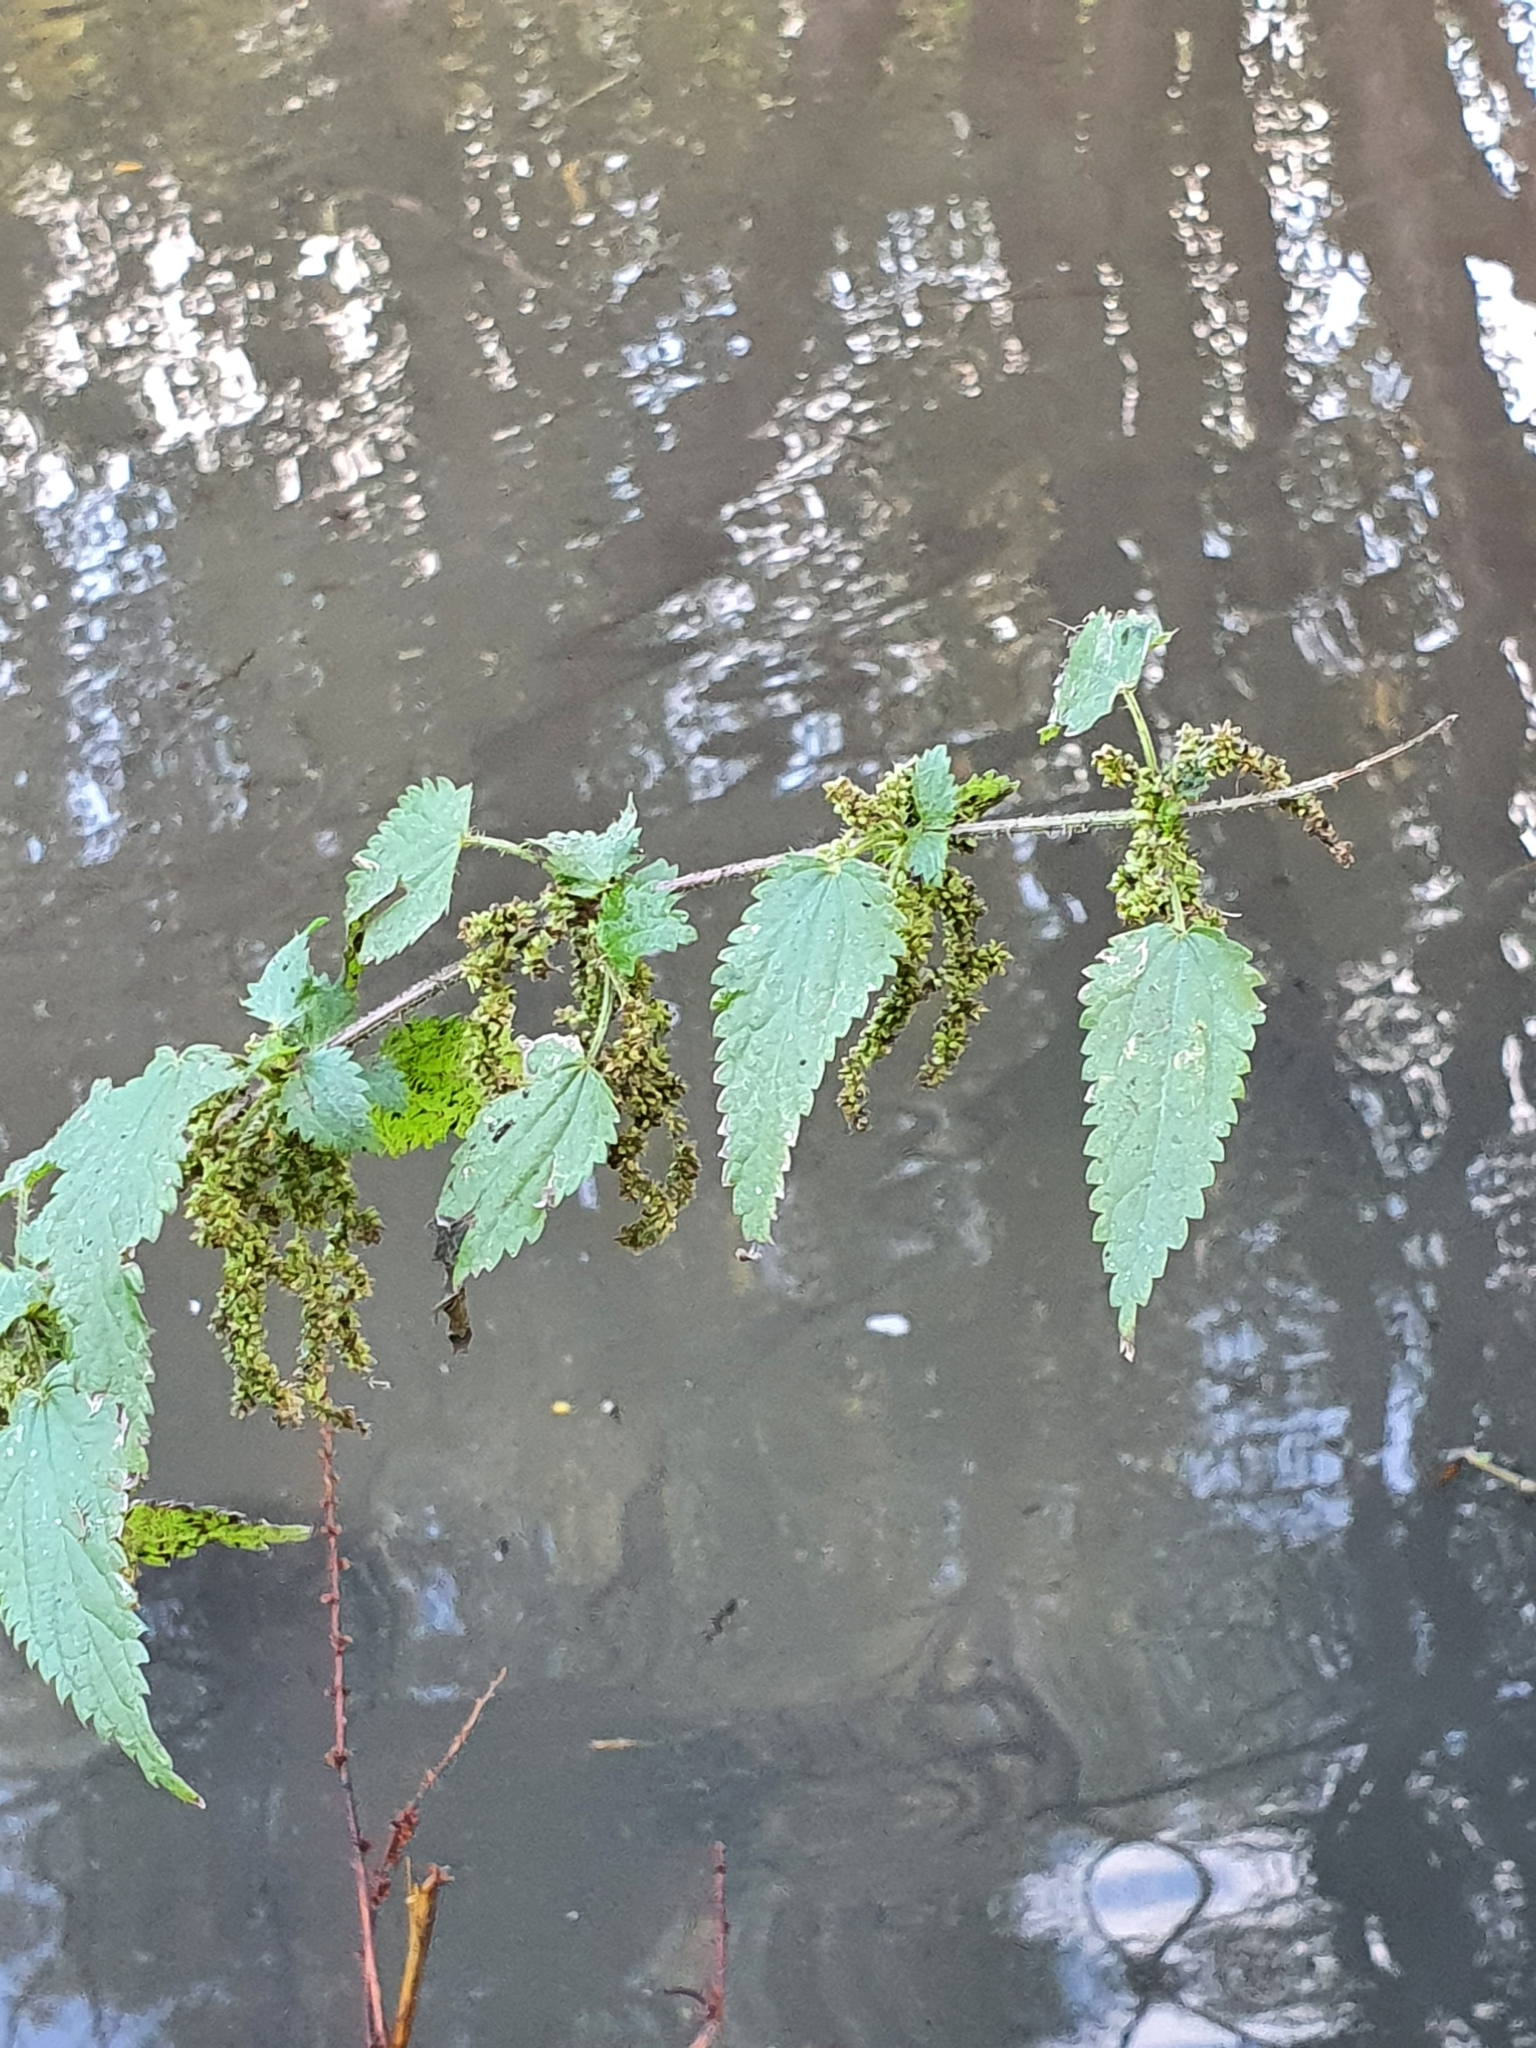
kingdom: Plantae
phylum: Tracheophyta
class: Magnoliopsida
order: Rosales
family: Urticaceae
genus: Urtica
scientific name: Urtica dioica
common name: Common nettle
